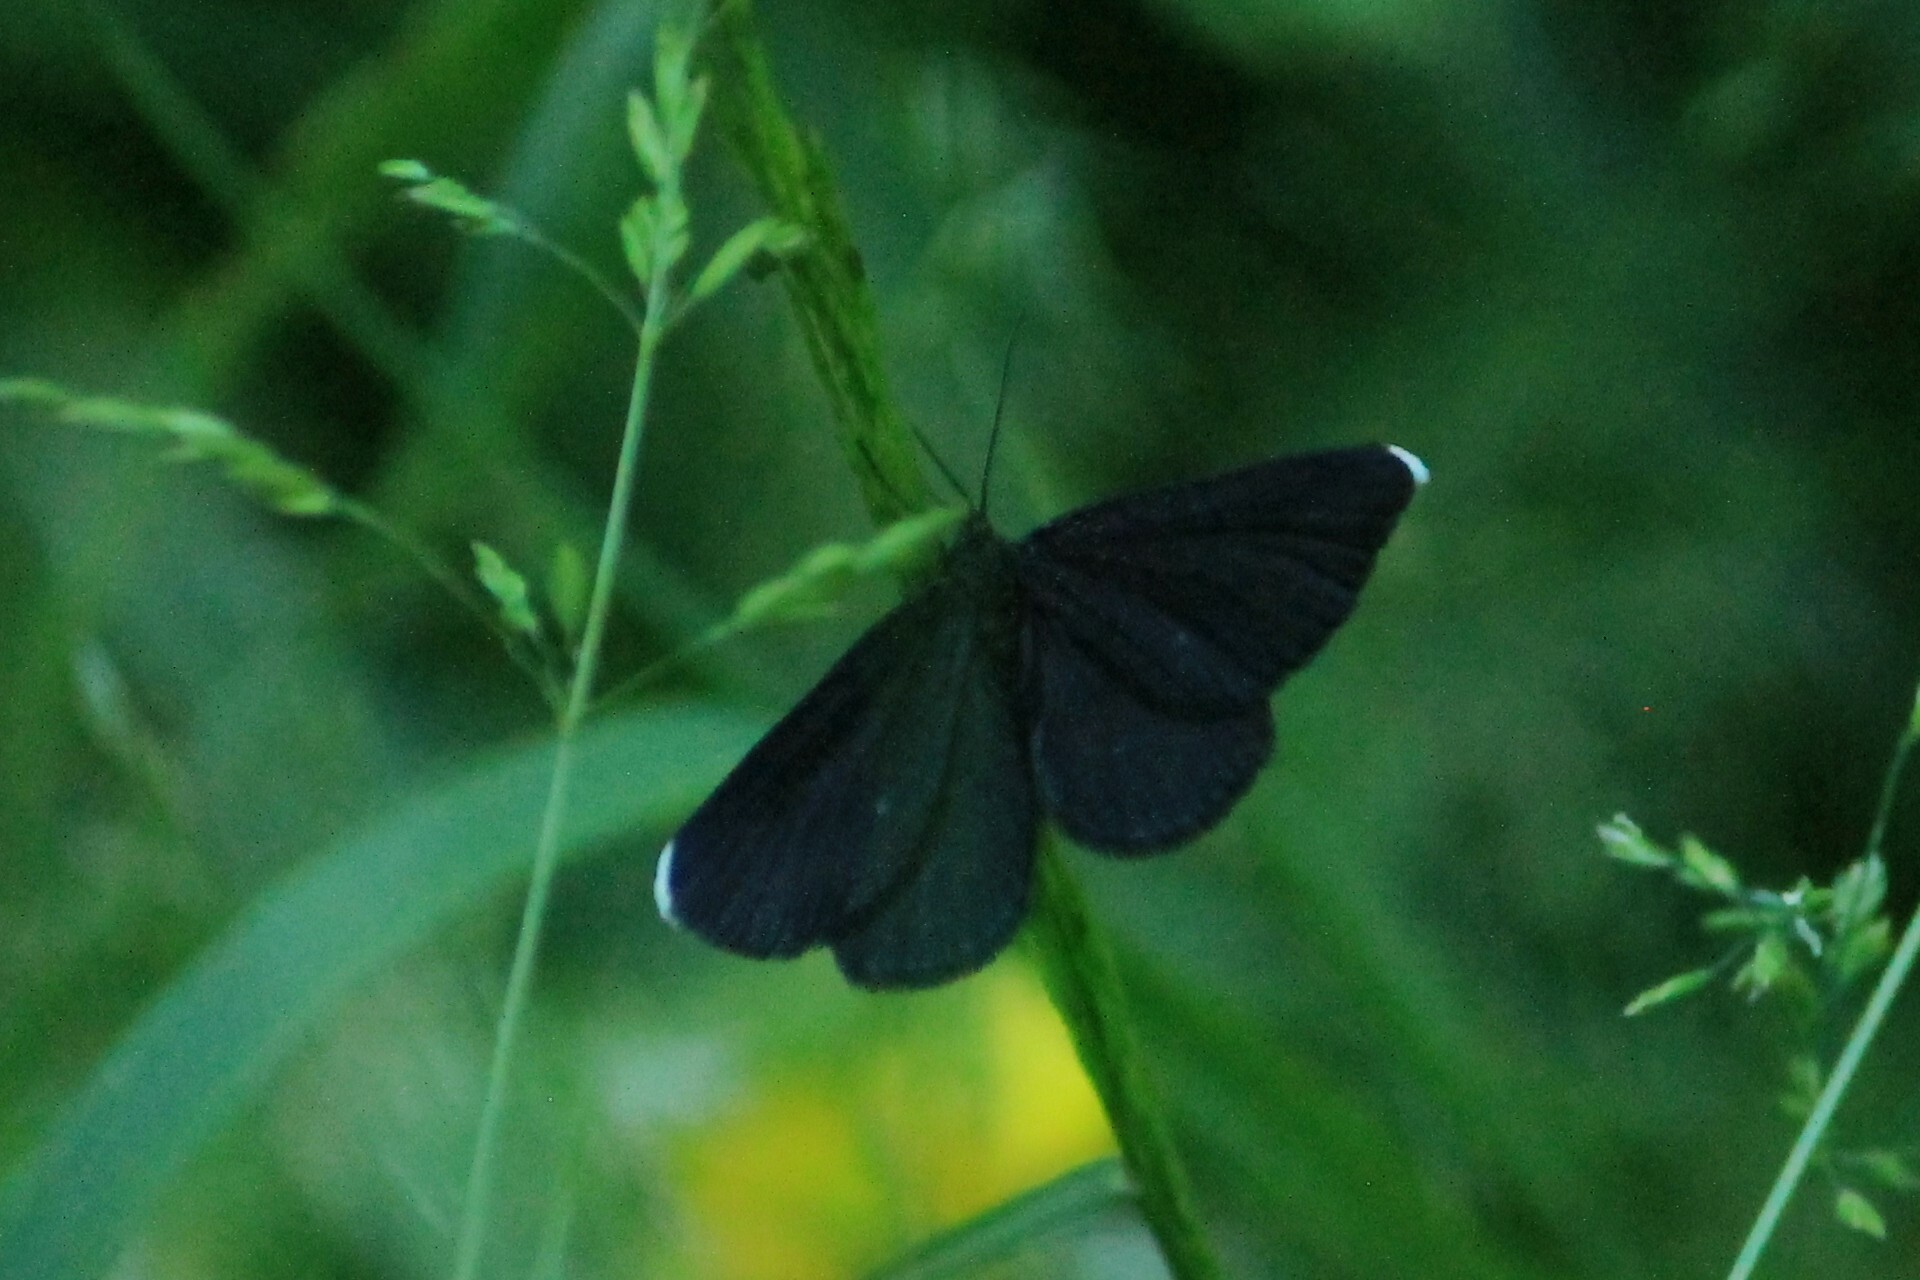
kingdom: Animalia
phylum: Arthropoda
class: Insecta
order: Lepidoptera
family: Geometridae
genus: Odezia
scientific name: Odezia atrata
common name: Chimney sweeper
